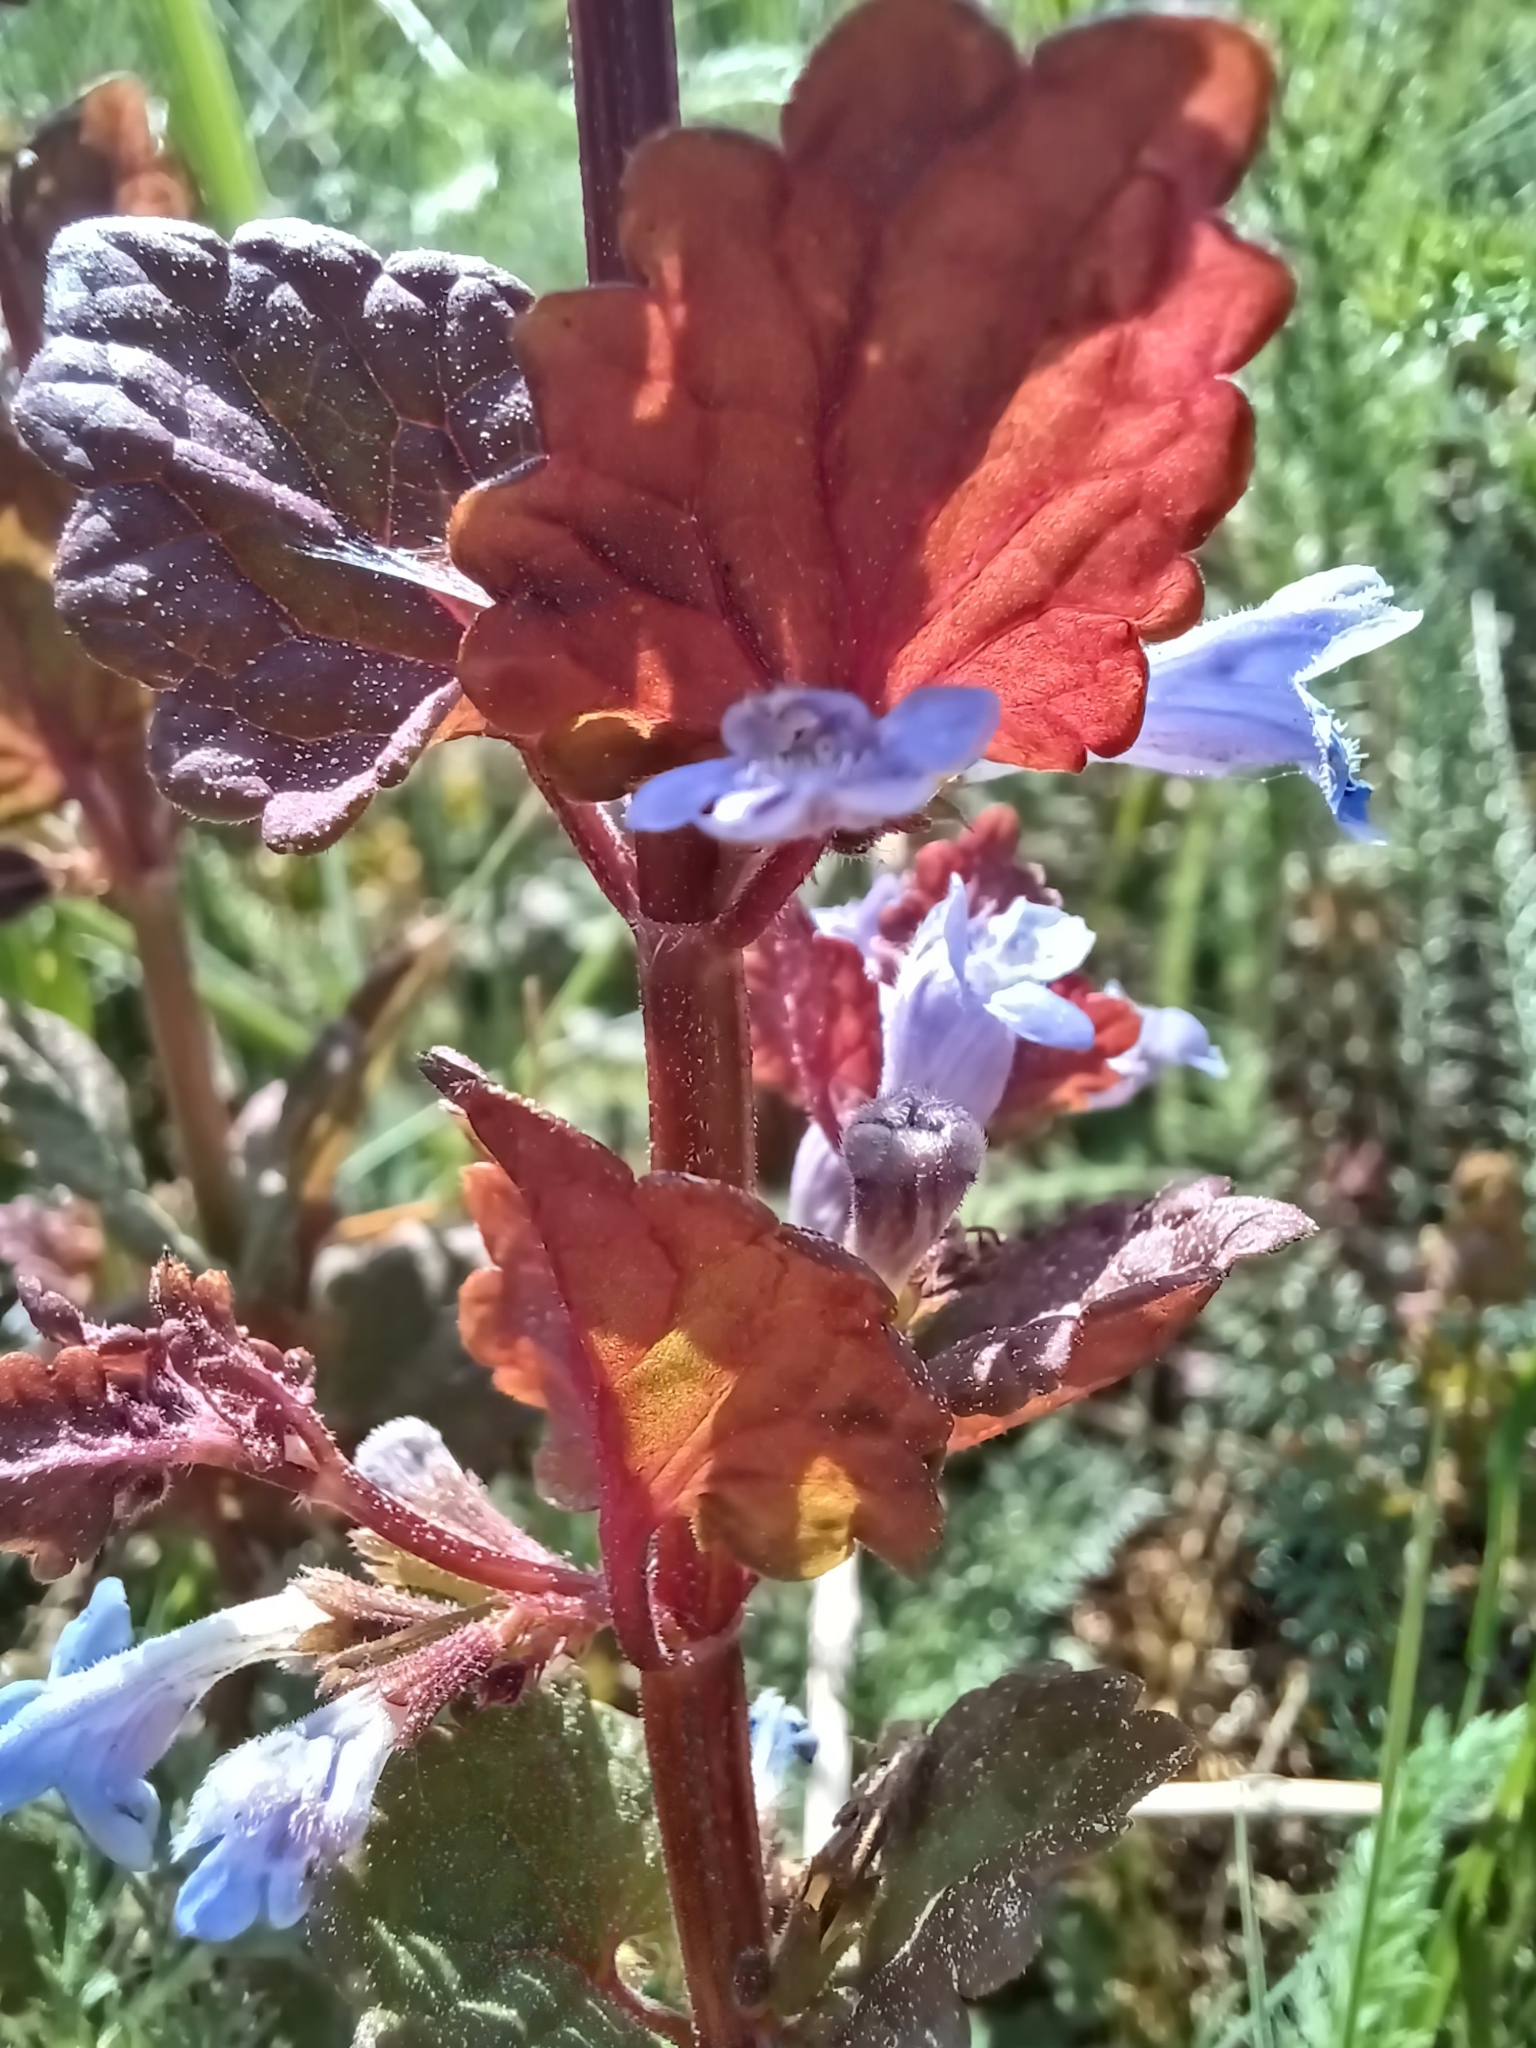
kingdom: Plantae
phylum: Tracheophyta
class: Magnoliopsida
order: Lamiales
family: Lamiaceae
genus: Glechoma
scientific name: Glechoma hederacea
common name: Ground ivy
